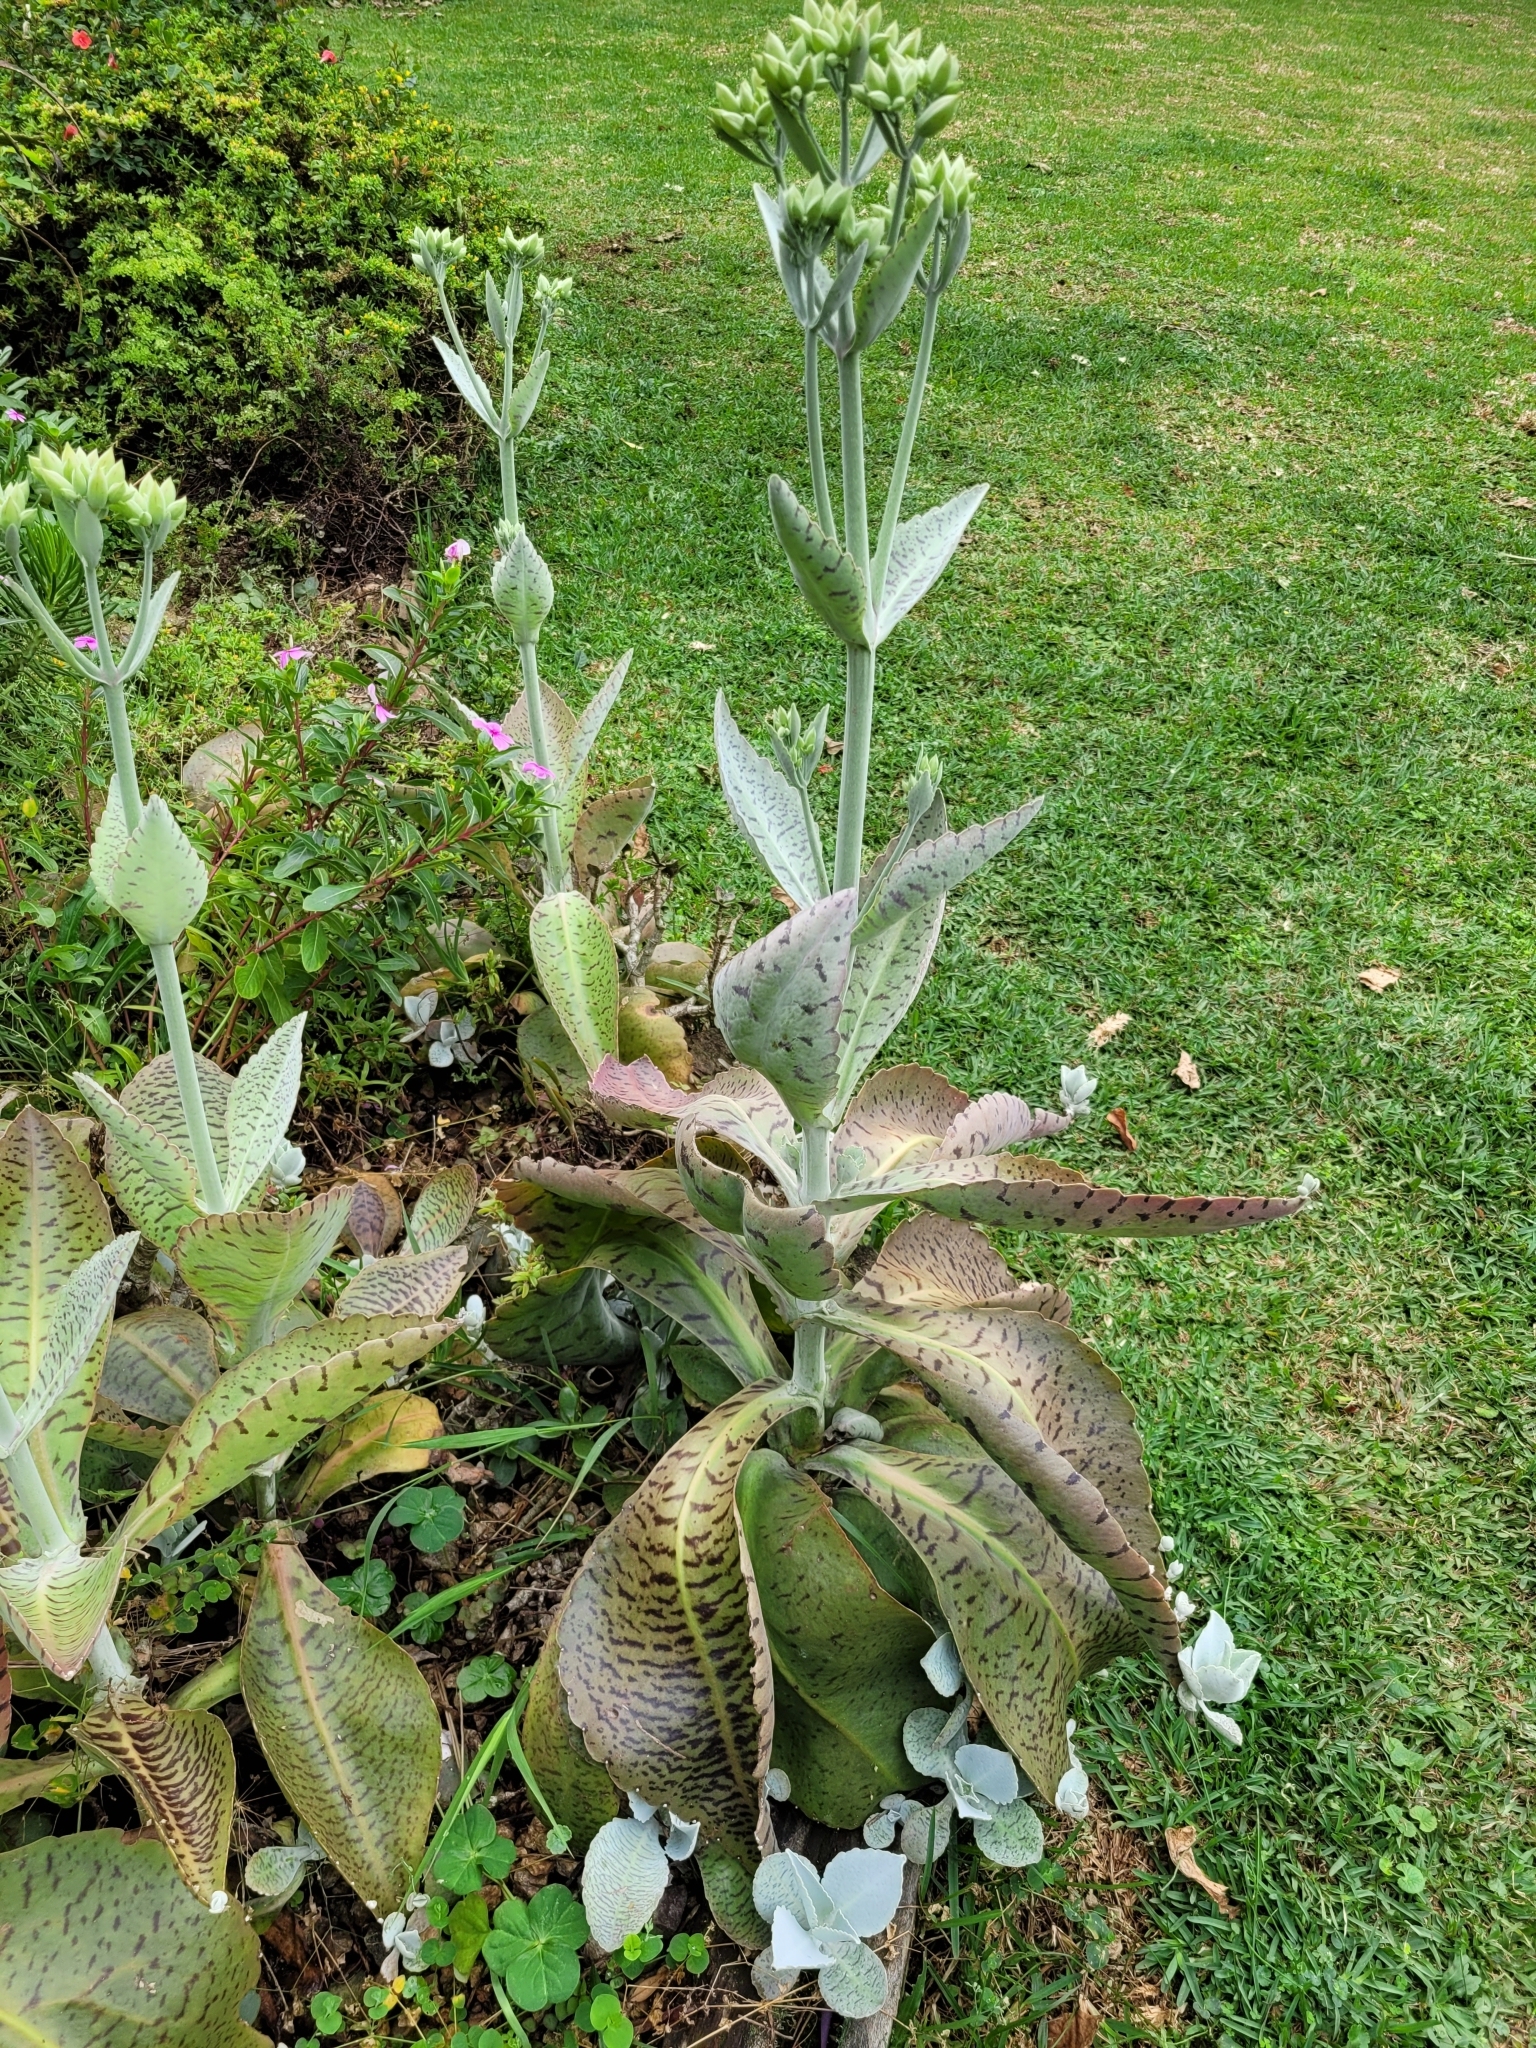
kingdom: Plantae
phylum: Tracheophyta
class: Magnoliopsida
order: Saxifragales
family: Crassulaceae
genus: Kalanchoe
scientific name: Kalanchoe gastonis-bonnieri
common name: Palm beachbells
